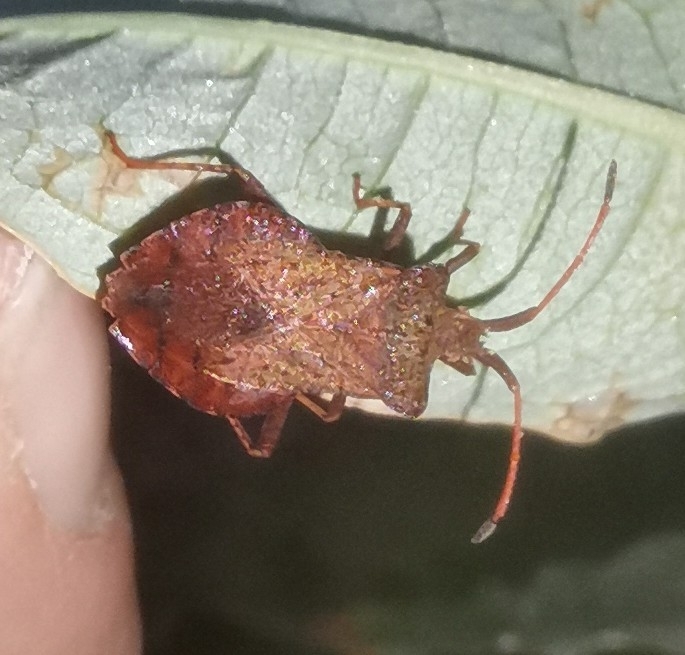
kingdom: Animalia
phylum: Arthropoda
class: Insecta
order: Hemiptera
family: Coreidae
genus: Coreus
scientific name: Coreus marginatus
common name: Dock bug
